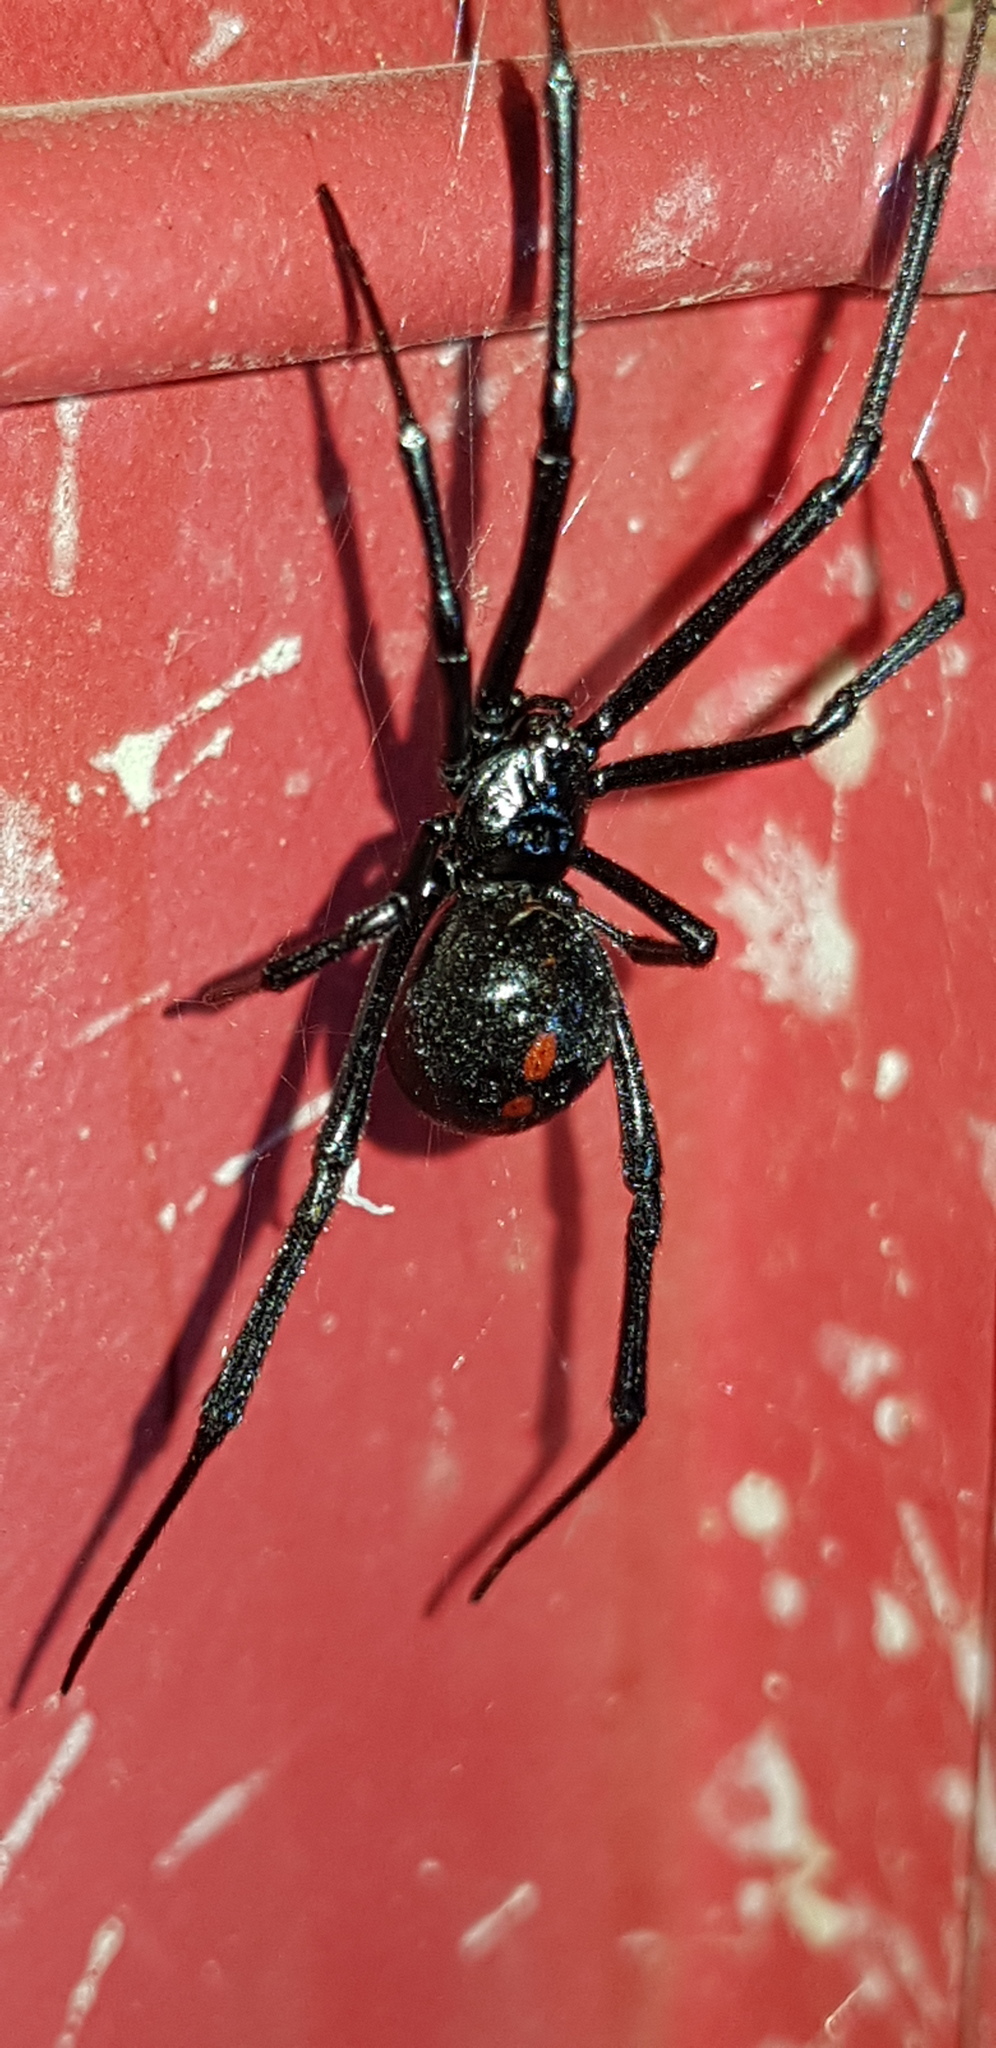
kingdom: Animalia
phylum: Arthropoda
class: Arachnida
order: Araneae
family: Theridiidae
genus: Latrodectus
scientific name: Latrodectus mactans
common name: Cobweb spiders
